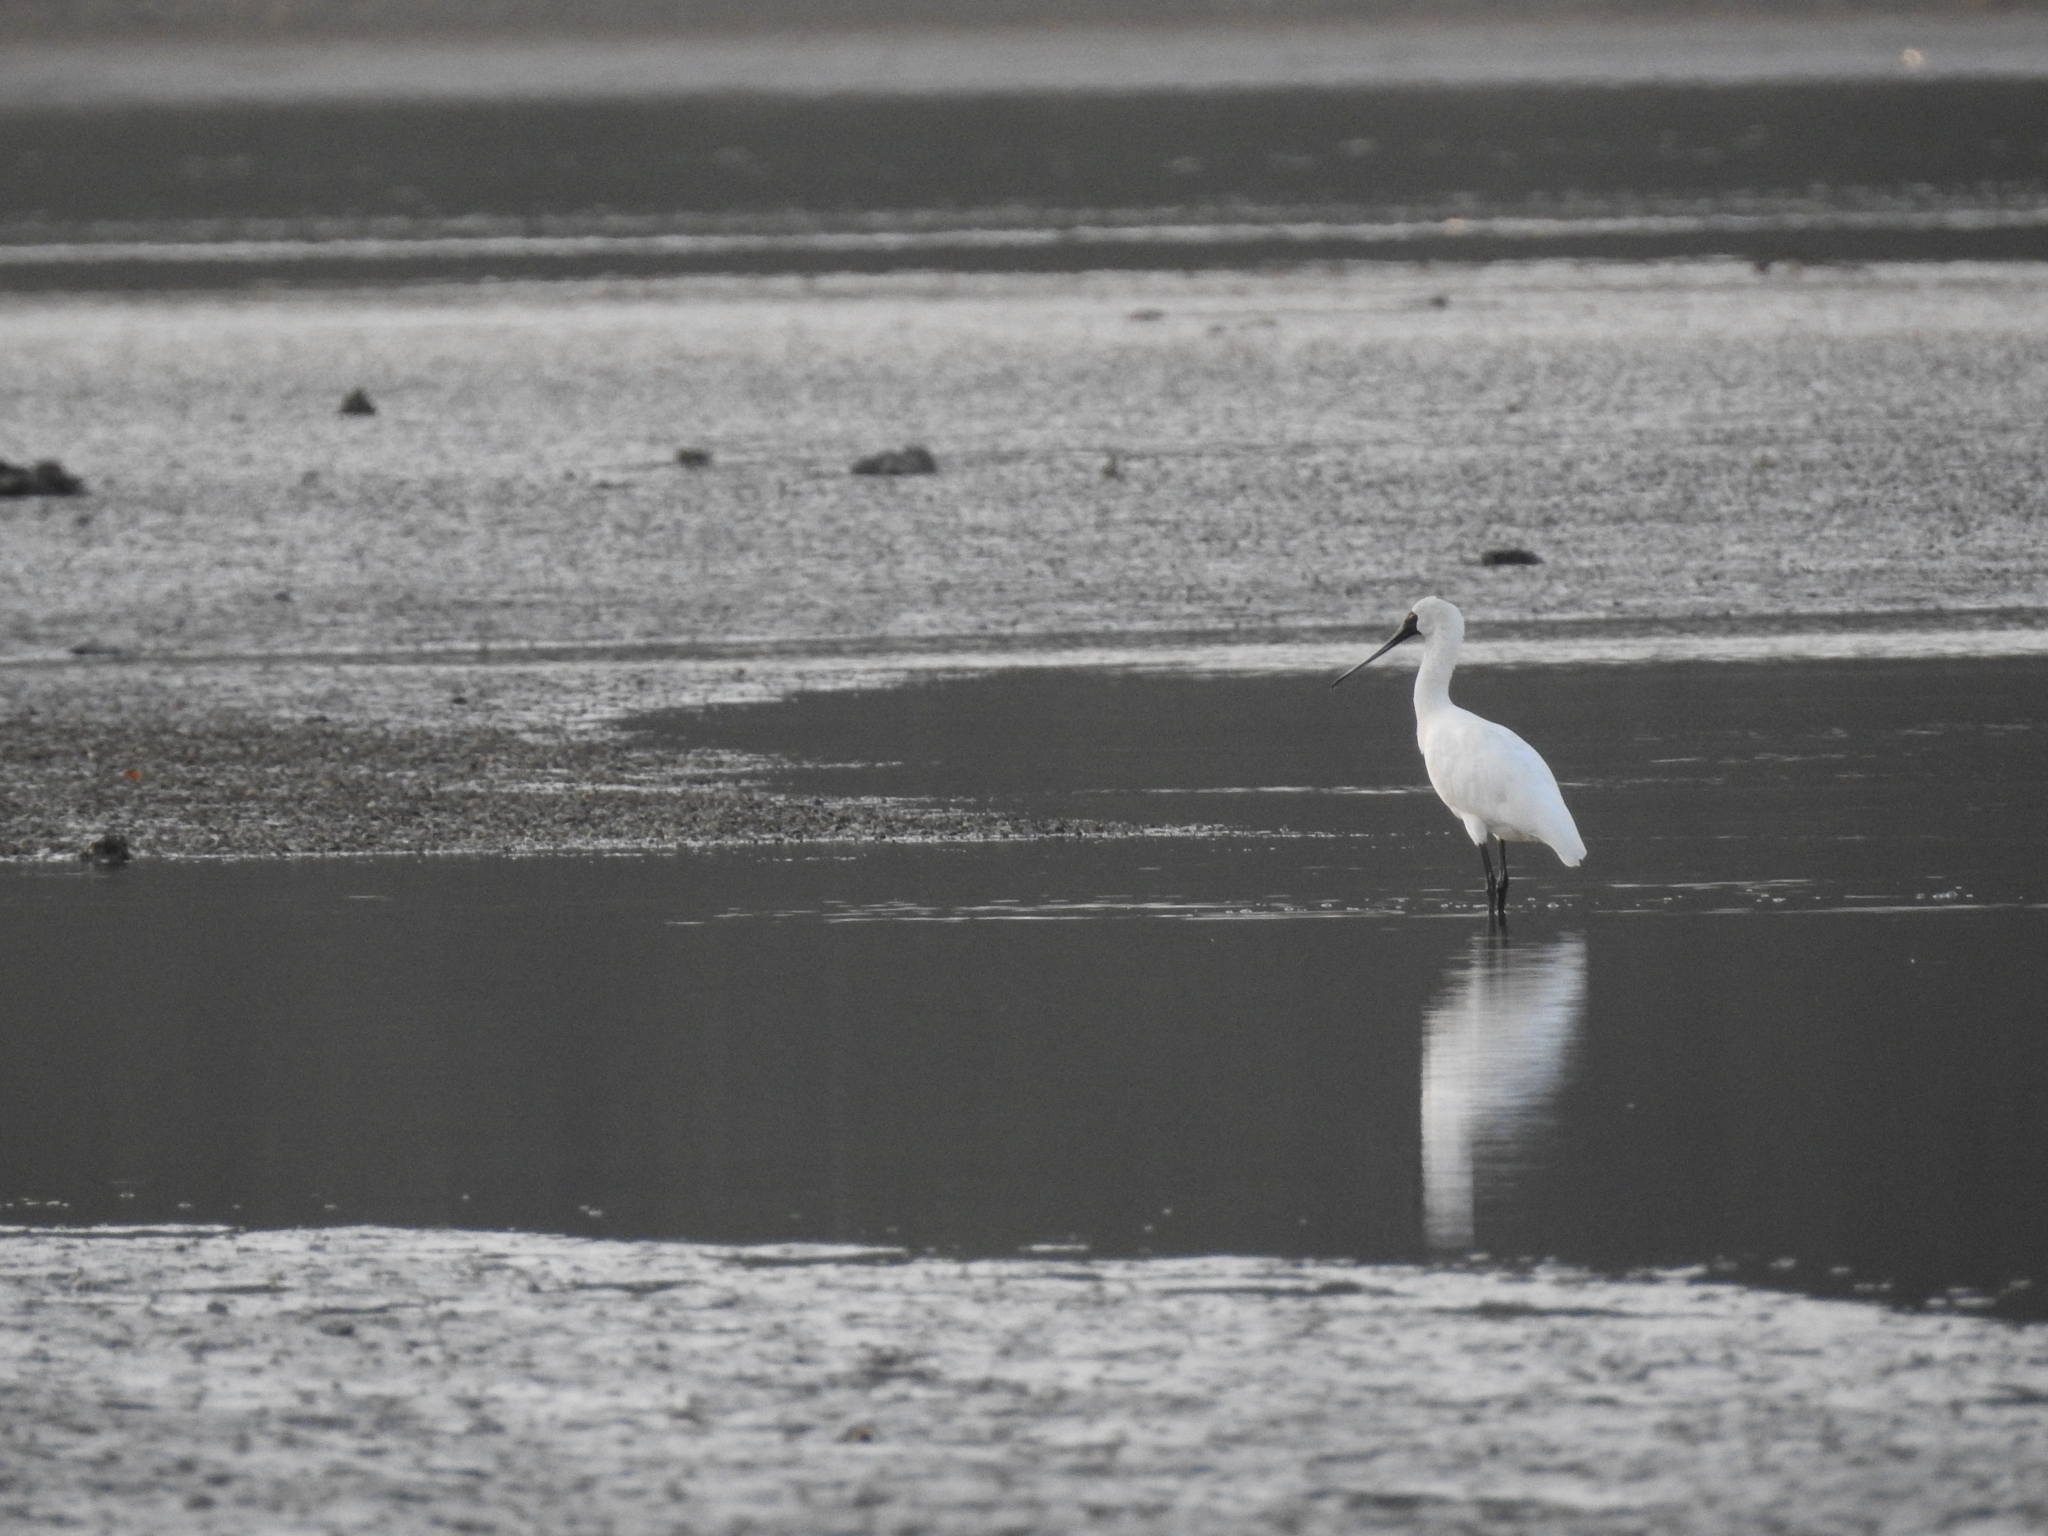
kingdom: Animalia
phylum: Chordata
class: Aves
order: Pelecaniformes
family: Threskiornithidae
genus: Platalea
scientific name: Platalea regia
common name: Royal spoonbill
